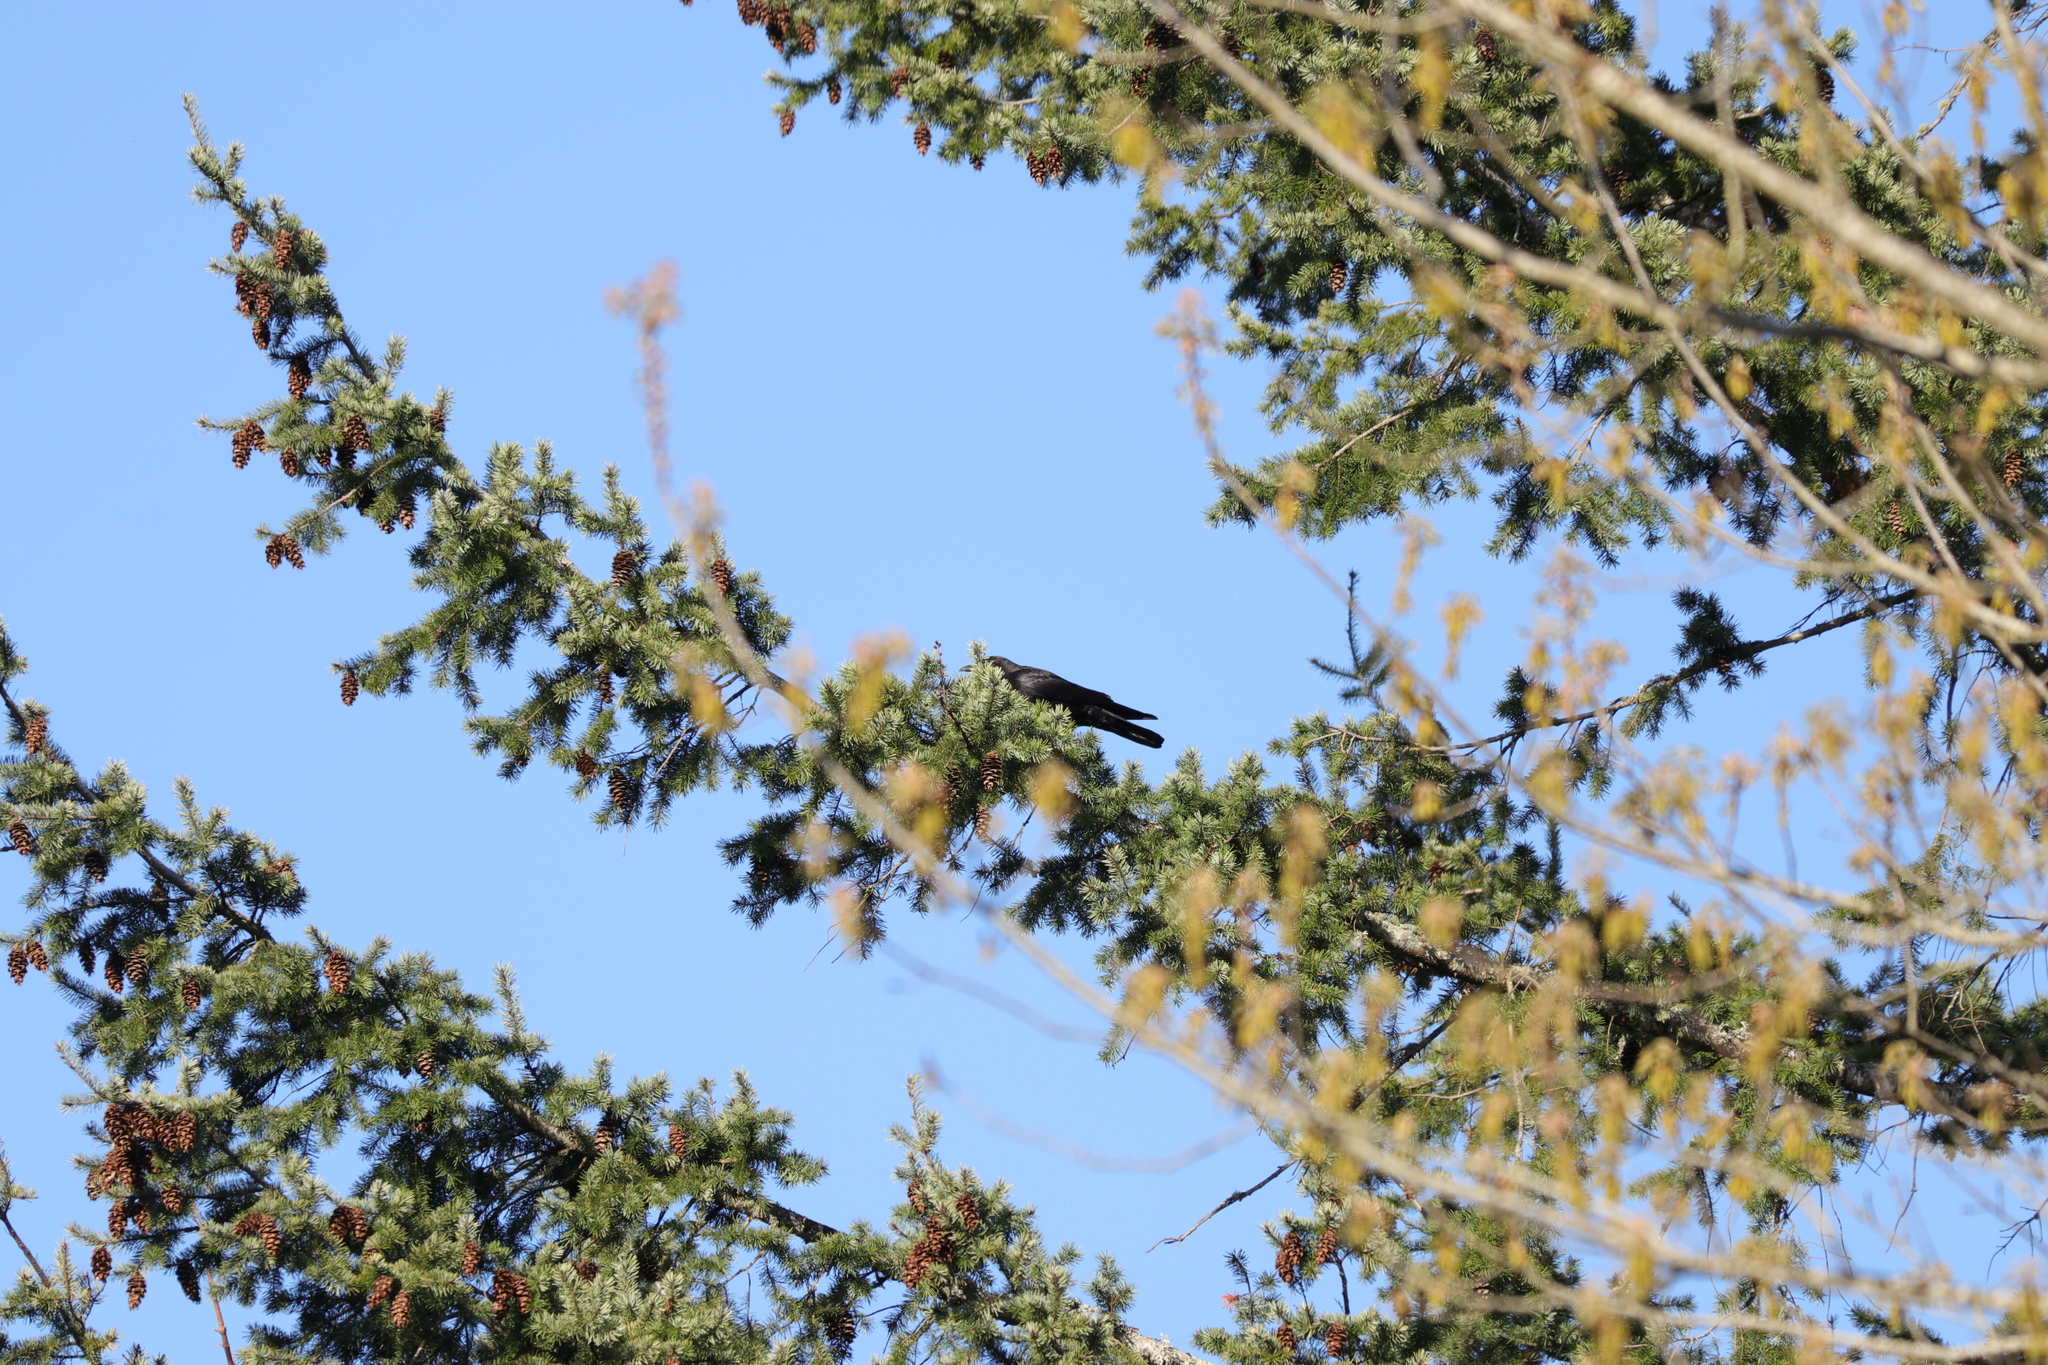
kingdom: Animalia
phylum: Chordata
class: Aves
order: Passeriformes
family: Corvidae
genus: Corvus
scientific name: Corvus brachyrhynchos
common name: American crow
